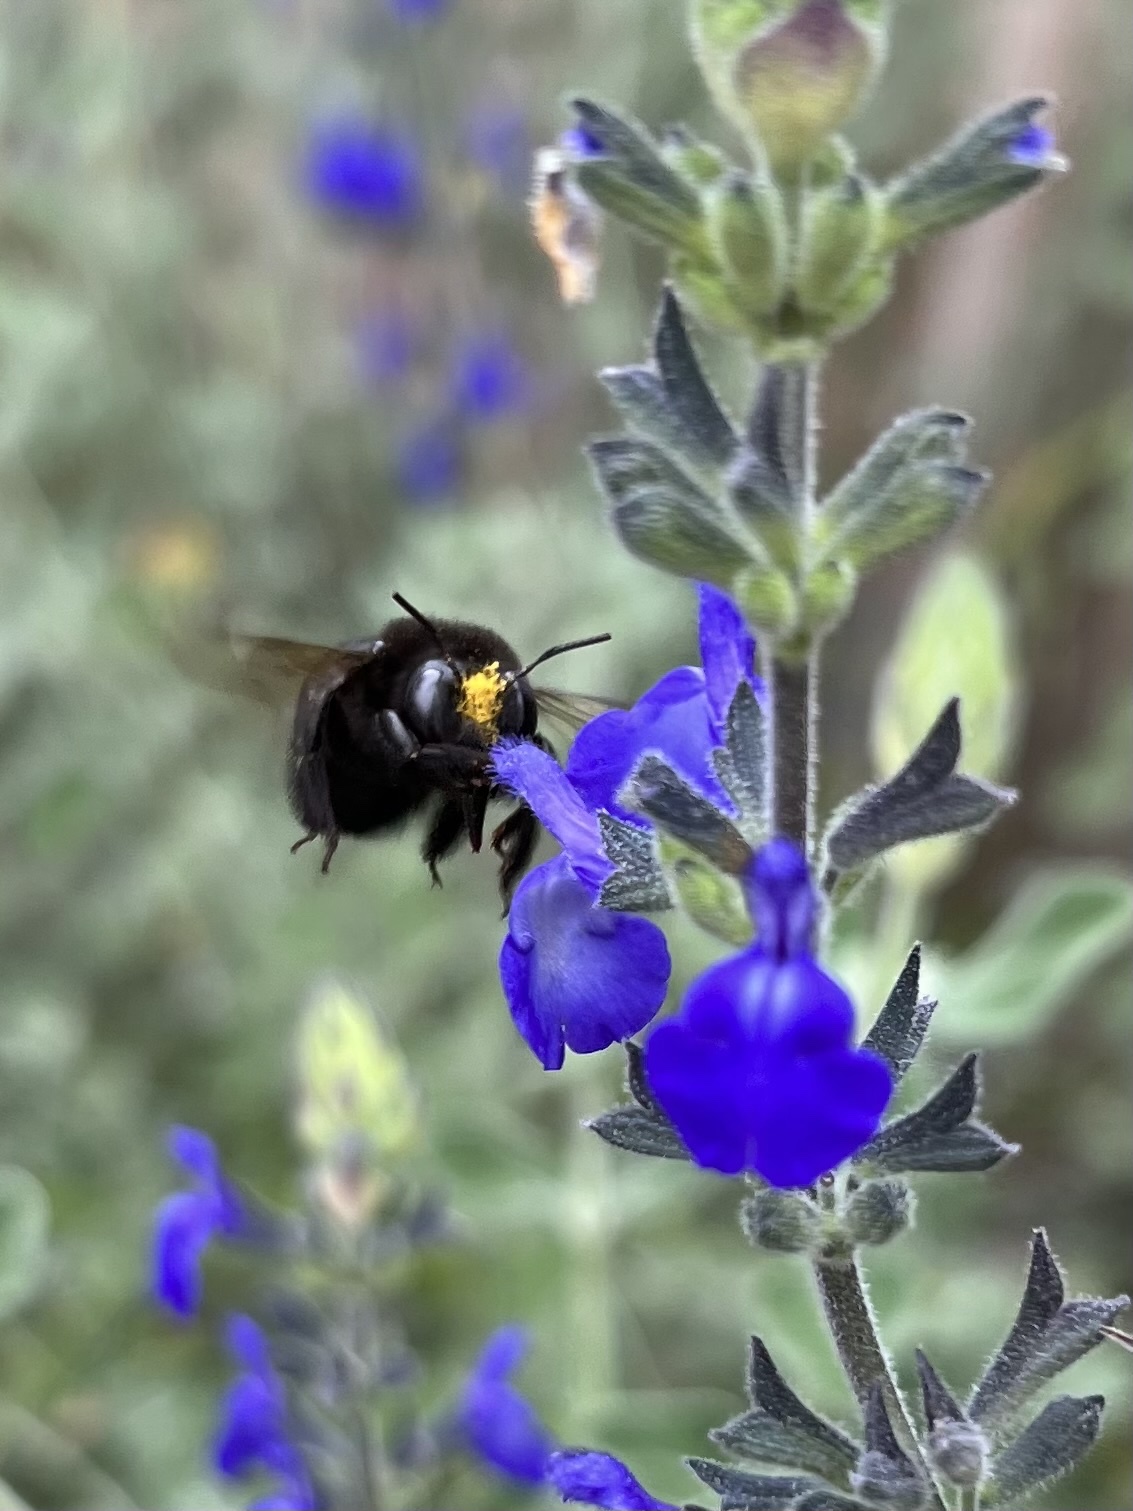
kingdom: Animalia
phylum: Arthropoda
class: Insecta
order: Hymenoptera
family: Apidae
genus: Xylocopa
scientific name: Xylocopa tabaniformis
